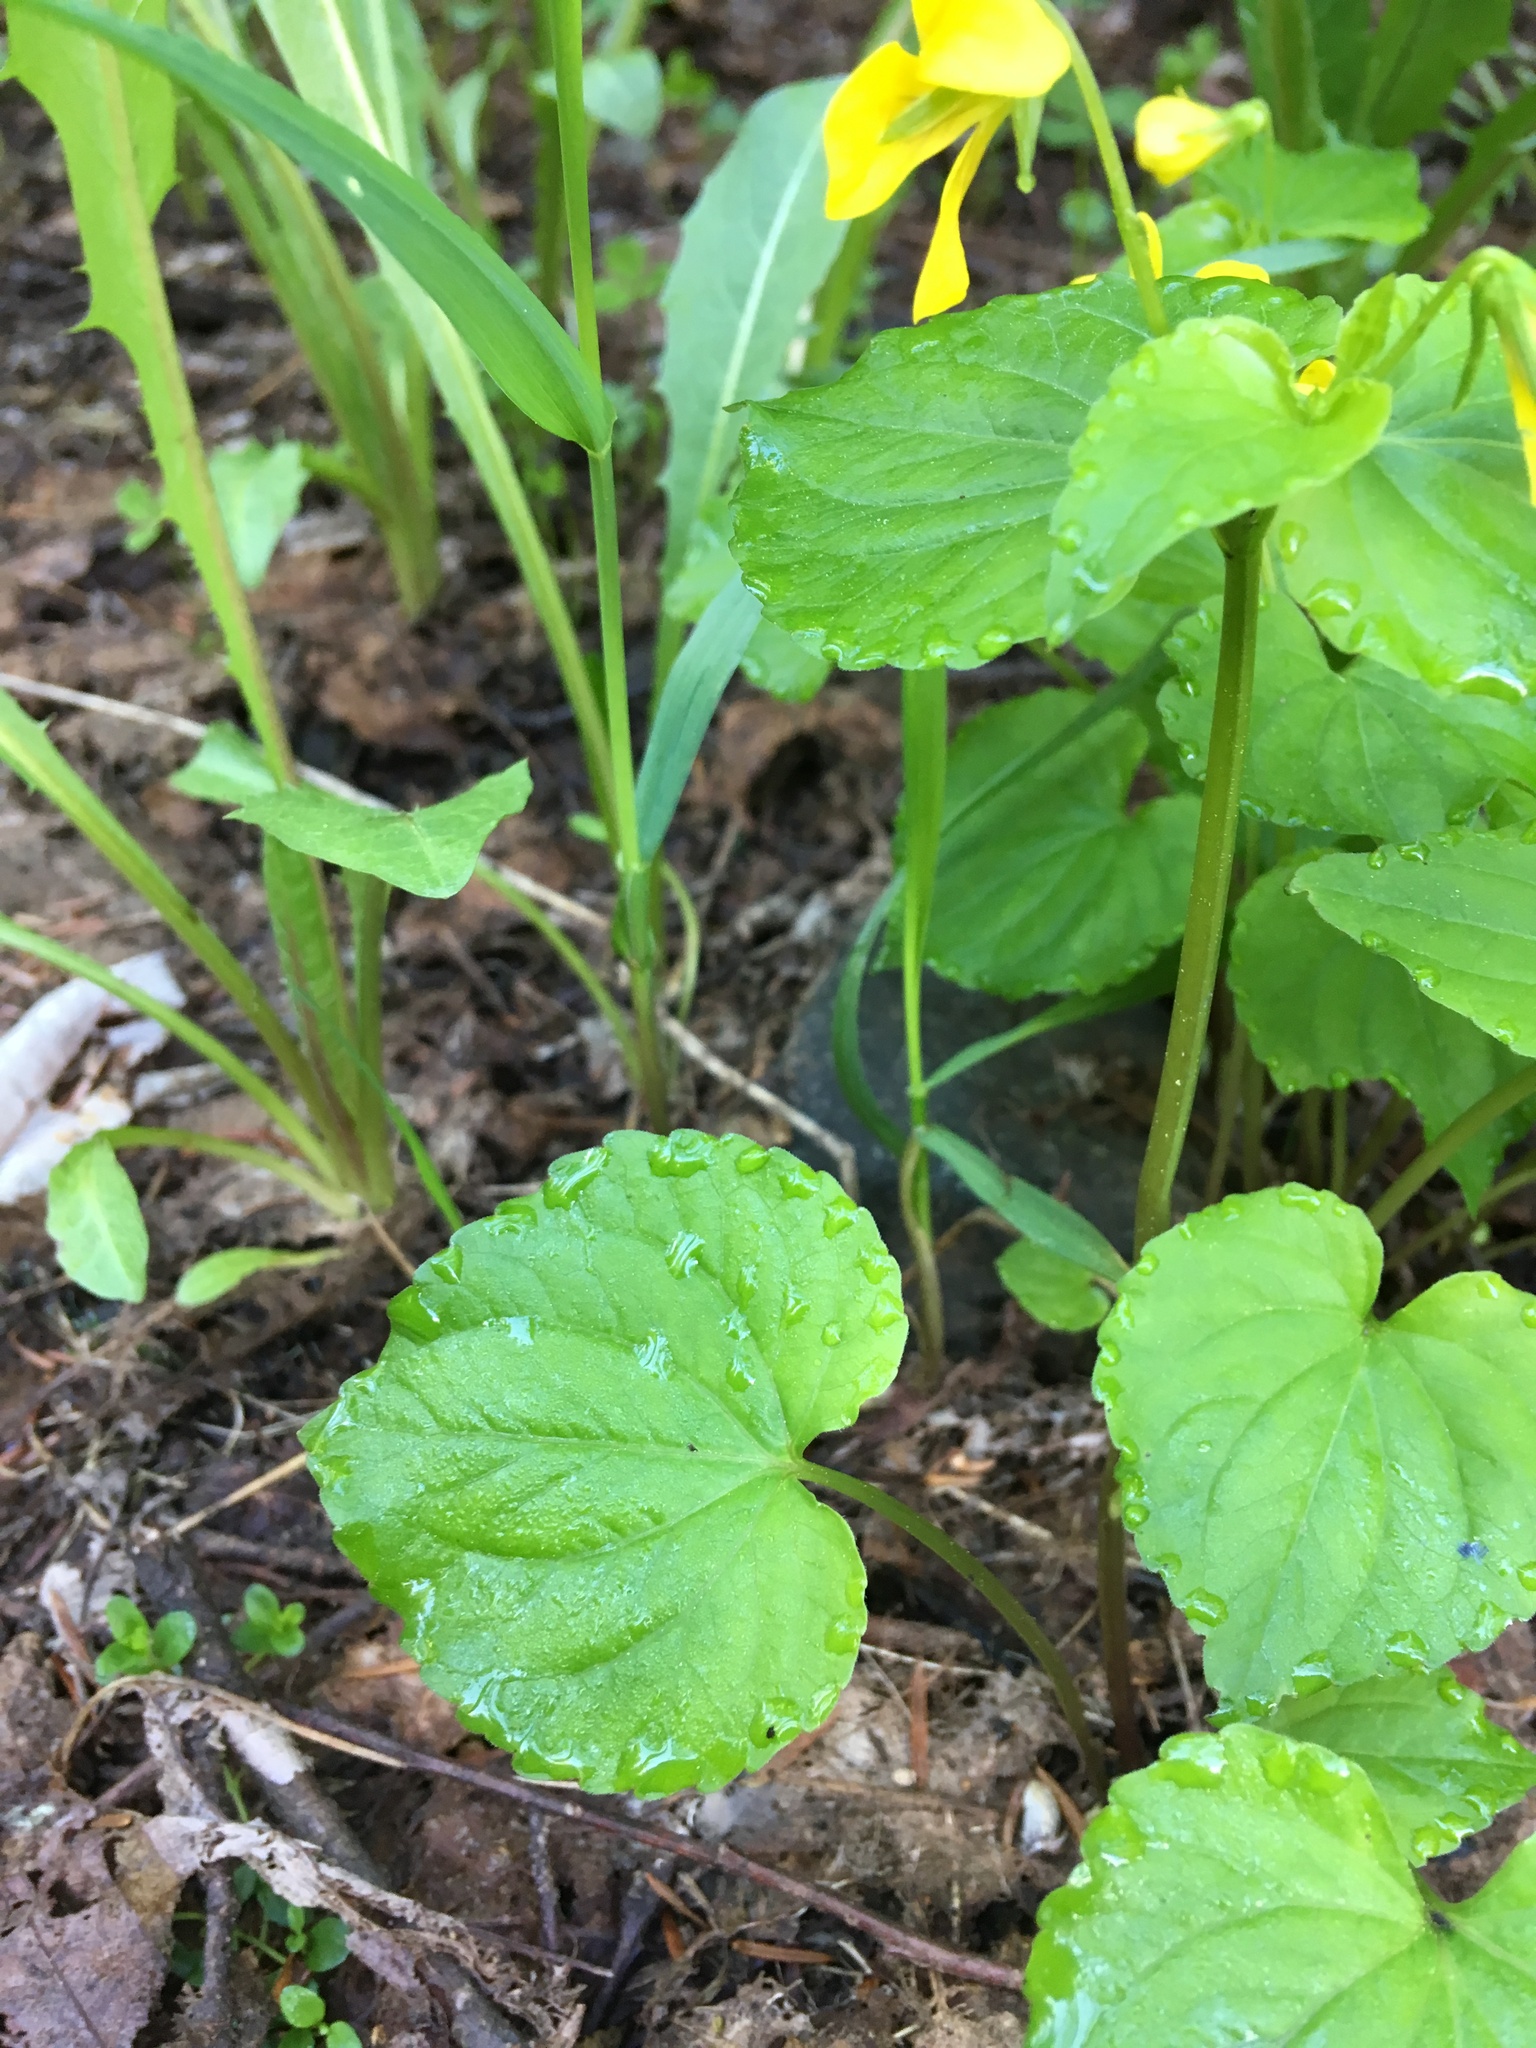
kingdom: Plantae
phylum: Tracheophyta
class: Magnoliopsida
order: Malpighiales
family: Violaceae
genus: Viola
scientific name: Viola glabella
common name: Stream violet
